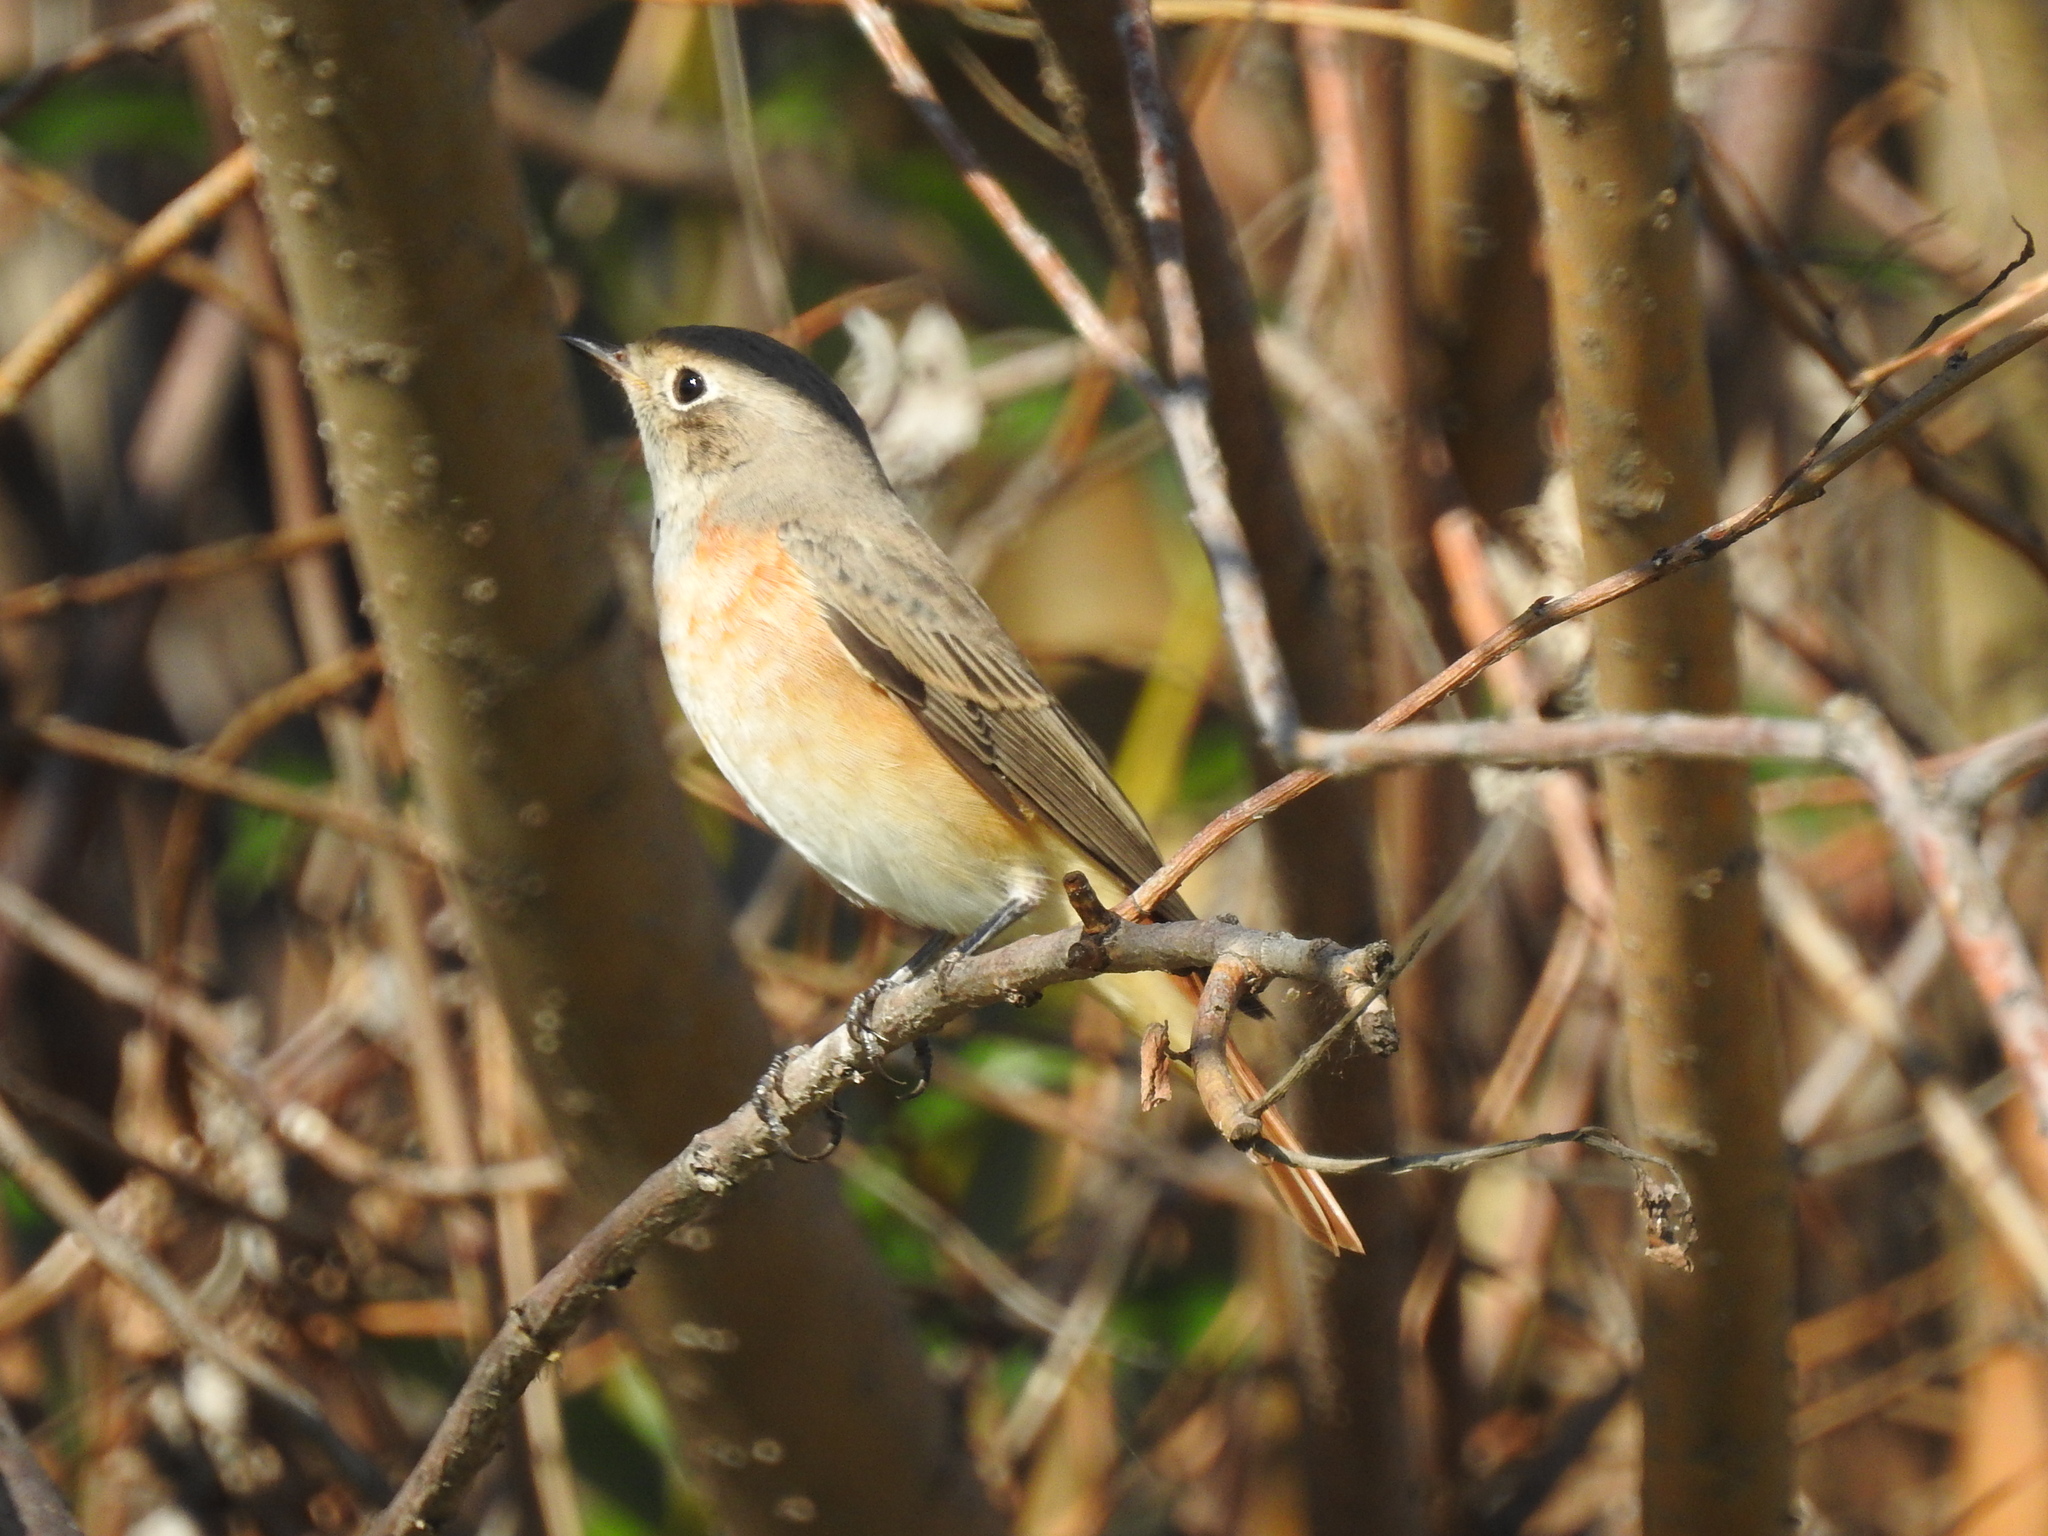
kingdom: Animalia
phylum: Chordata
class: Aves
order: Passeriformes
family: Muscicapidae
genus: Phoenicurus
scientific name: Phoenicurus phoenicurus
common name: Common redstart
